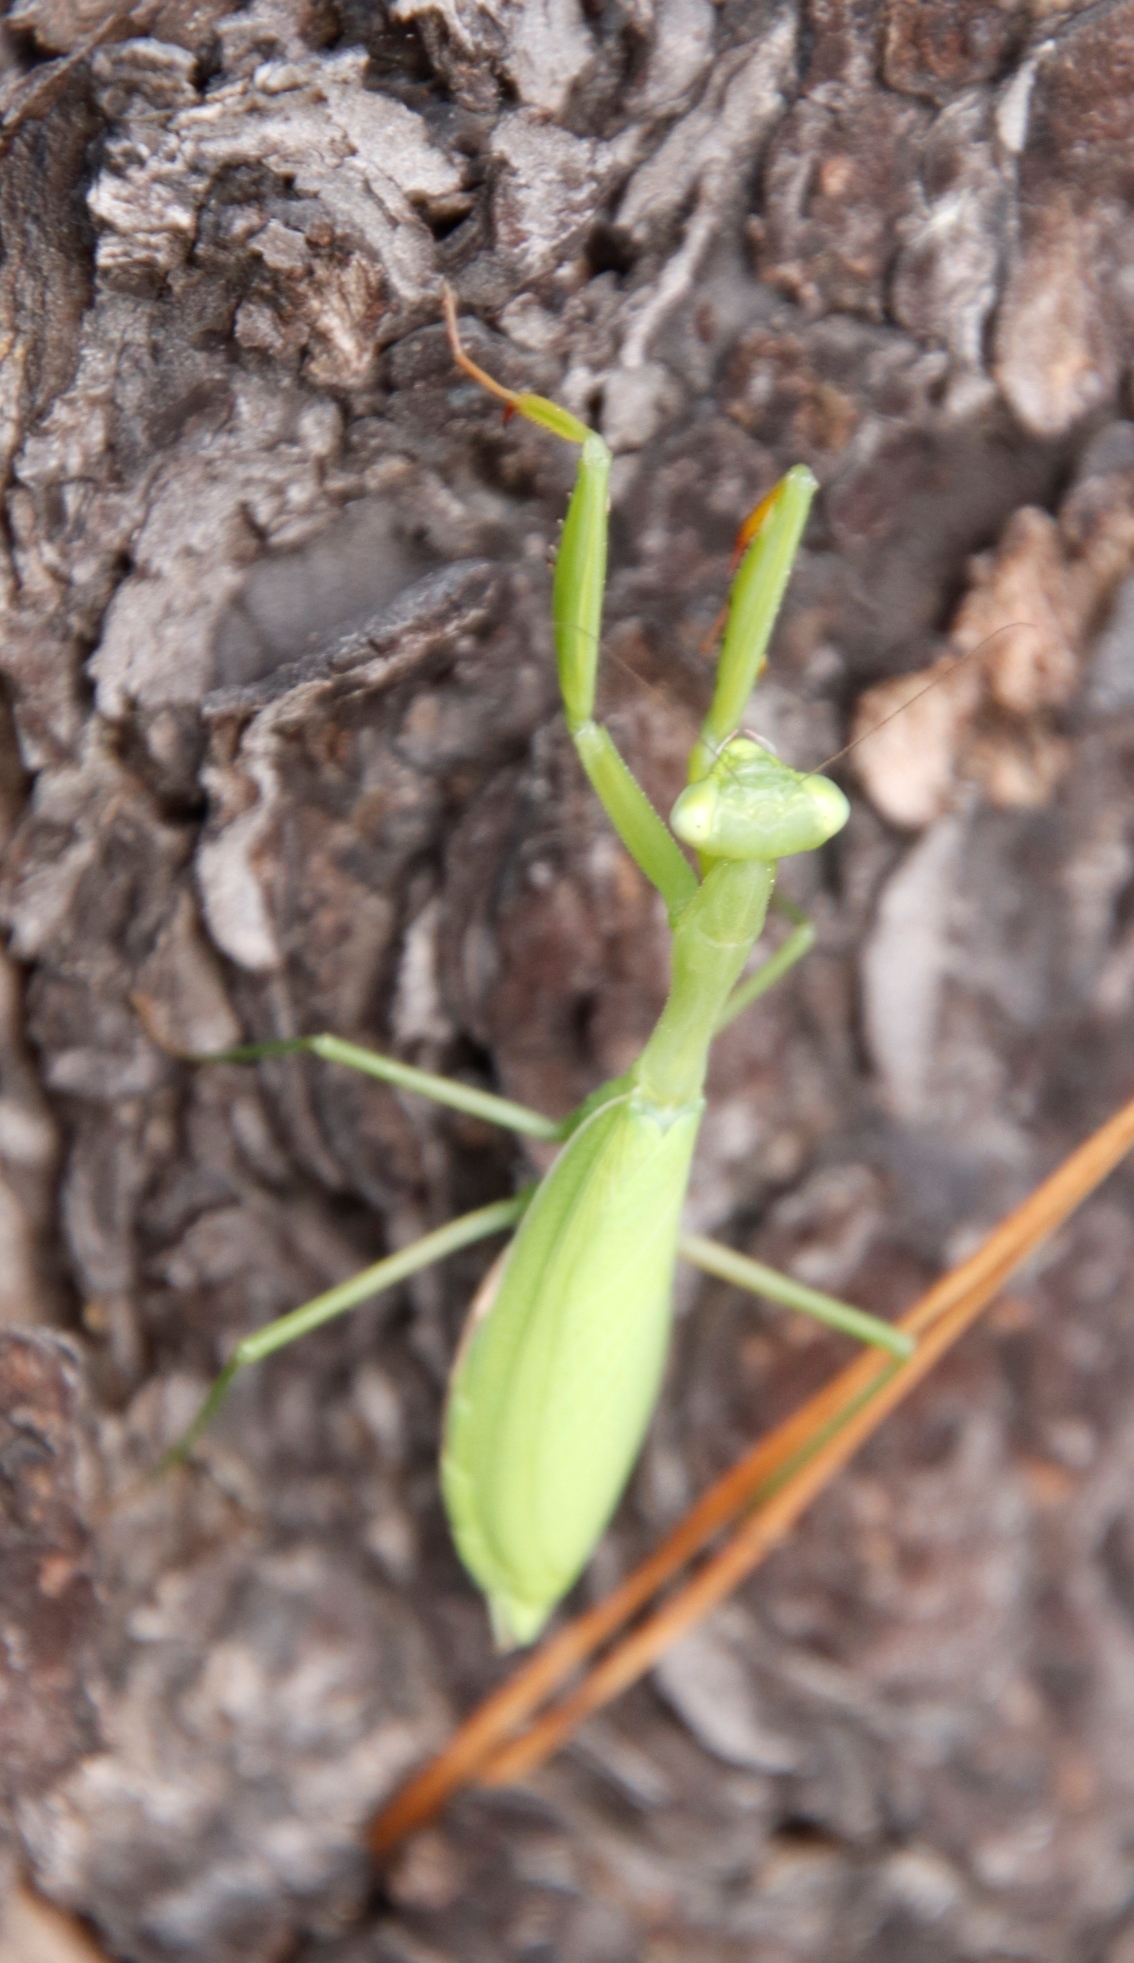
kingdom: Animalia
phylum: Arthropoda
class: Insecta
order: Mantodea
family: Miomantidae
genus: Miomantis
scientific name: Miomantis caffra
